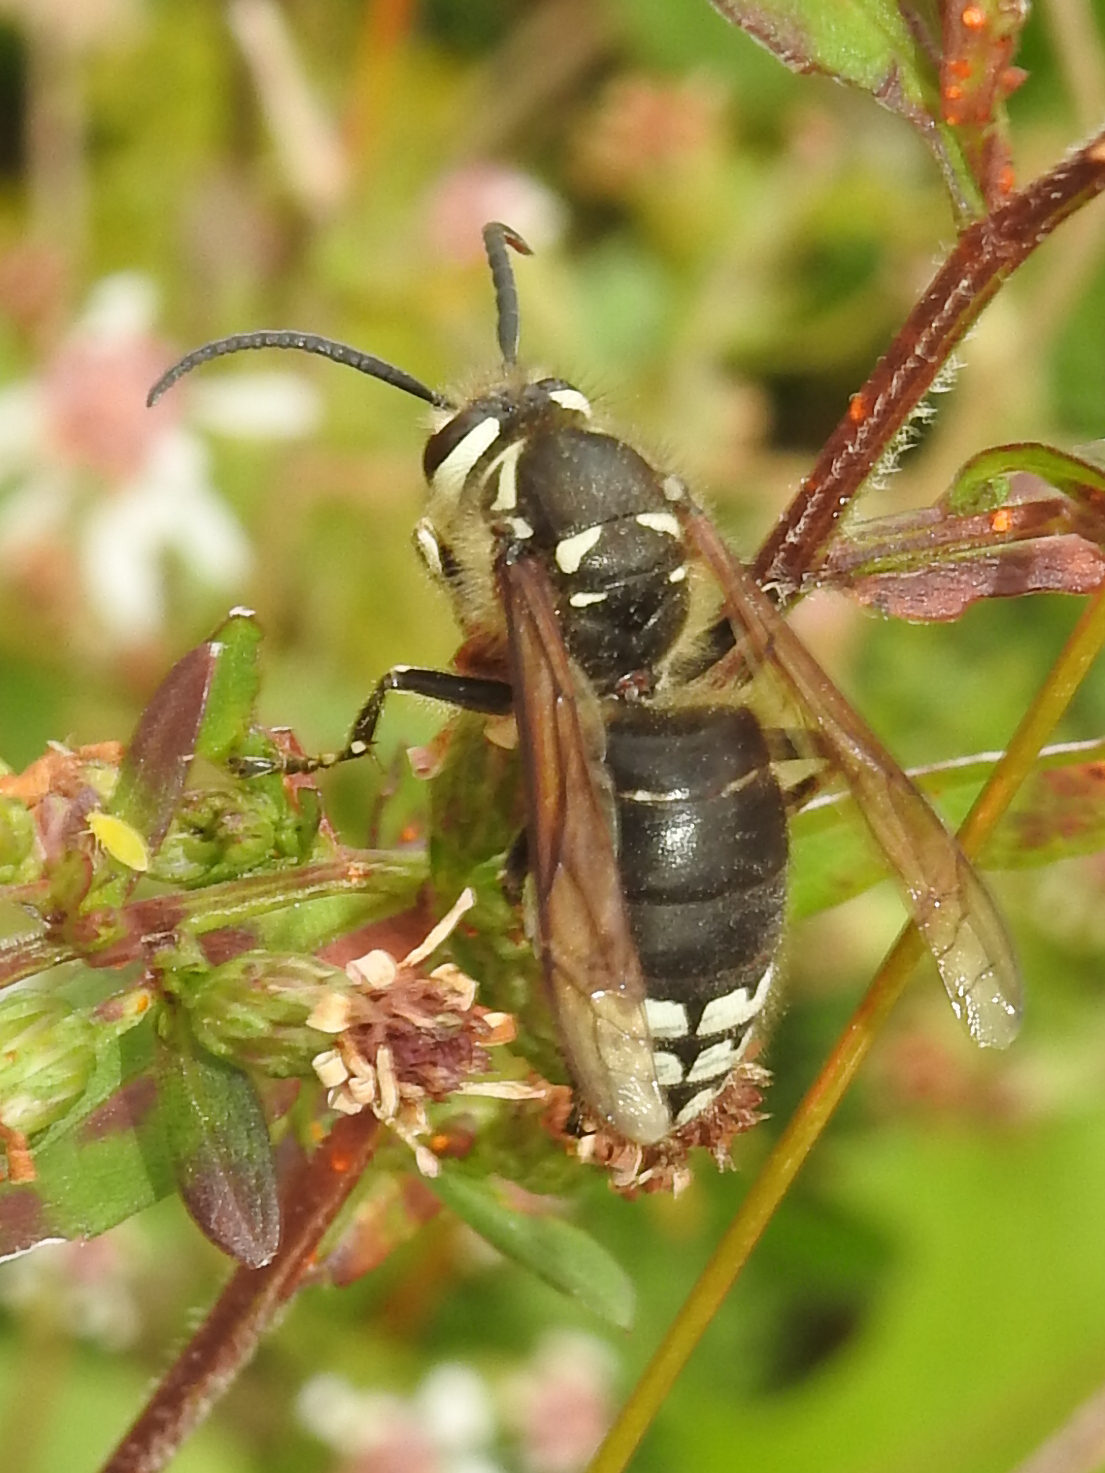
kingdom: Animalia
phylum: Arthropoda
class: Insecta
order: Hymenoptera
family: Vespidae
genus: Dolichovespula
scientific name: Dolichovespula maculata
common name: Bald-faced hornet
